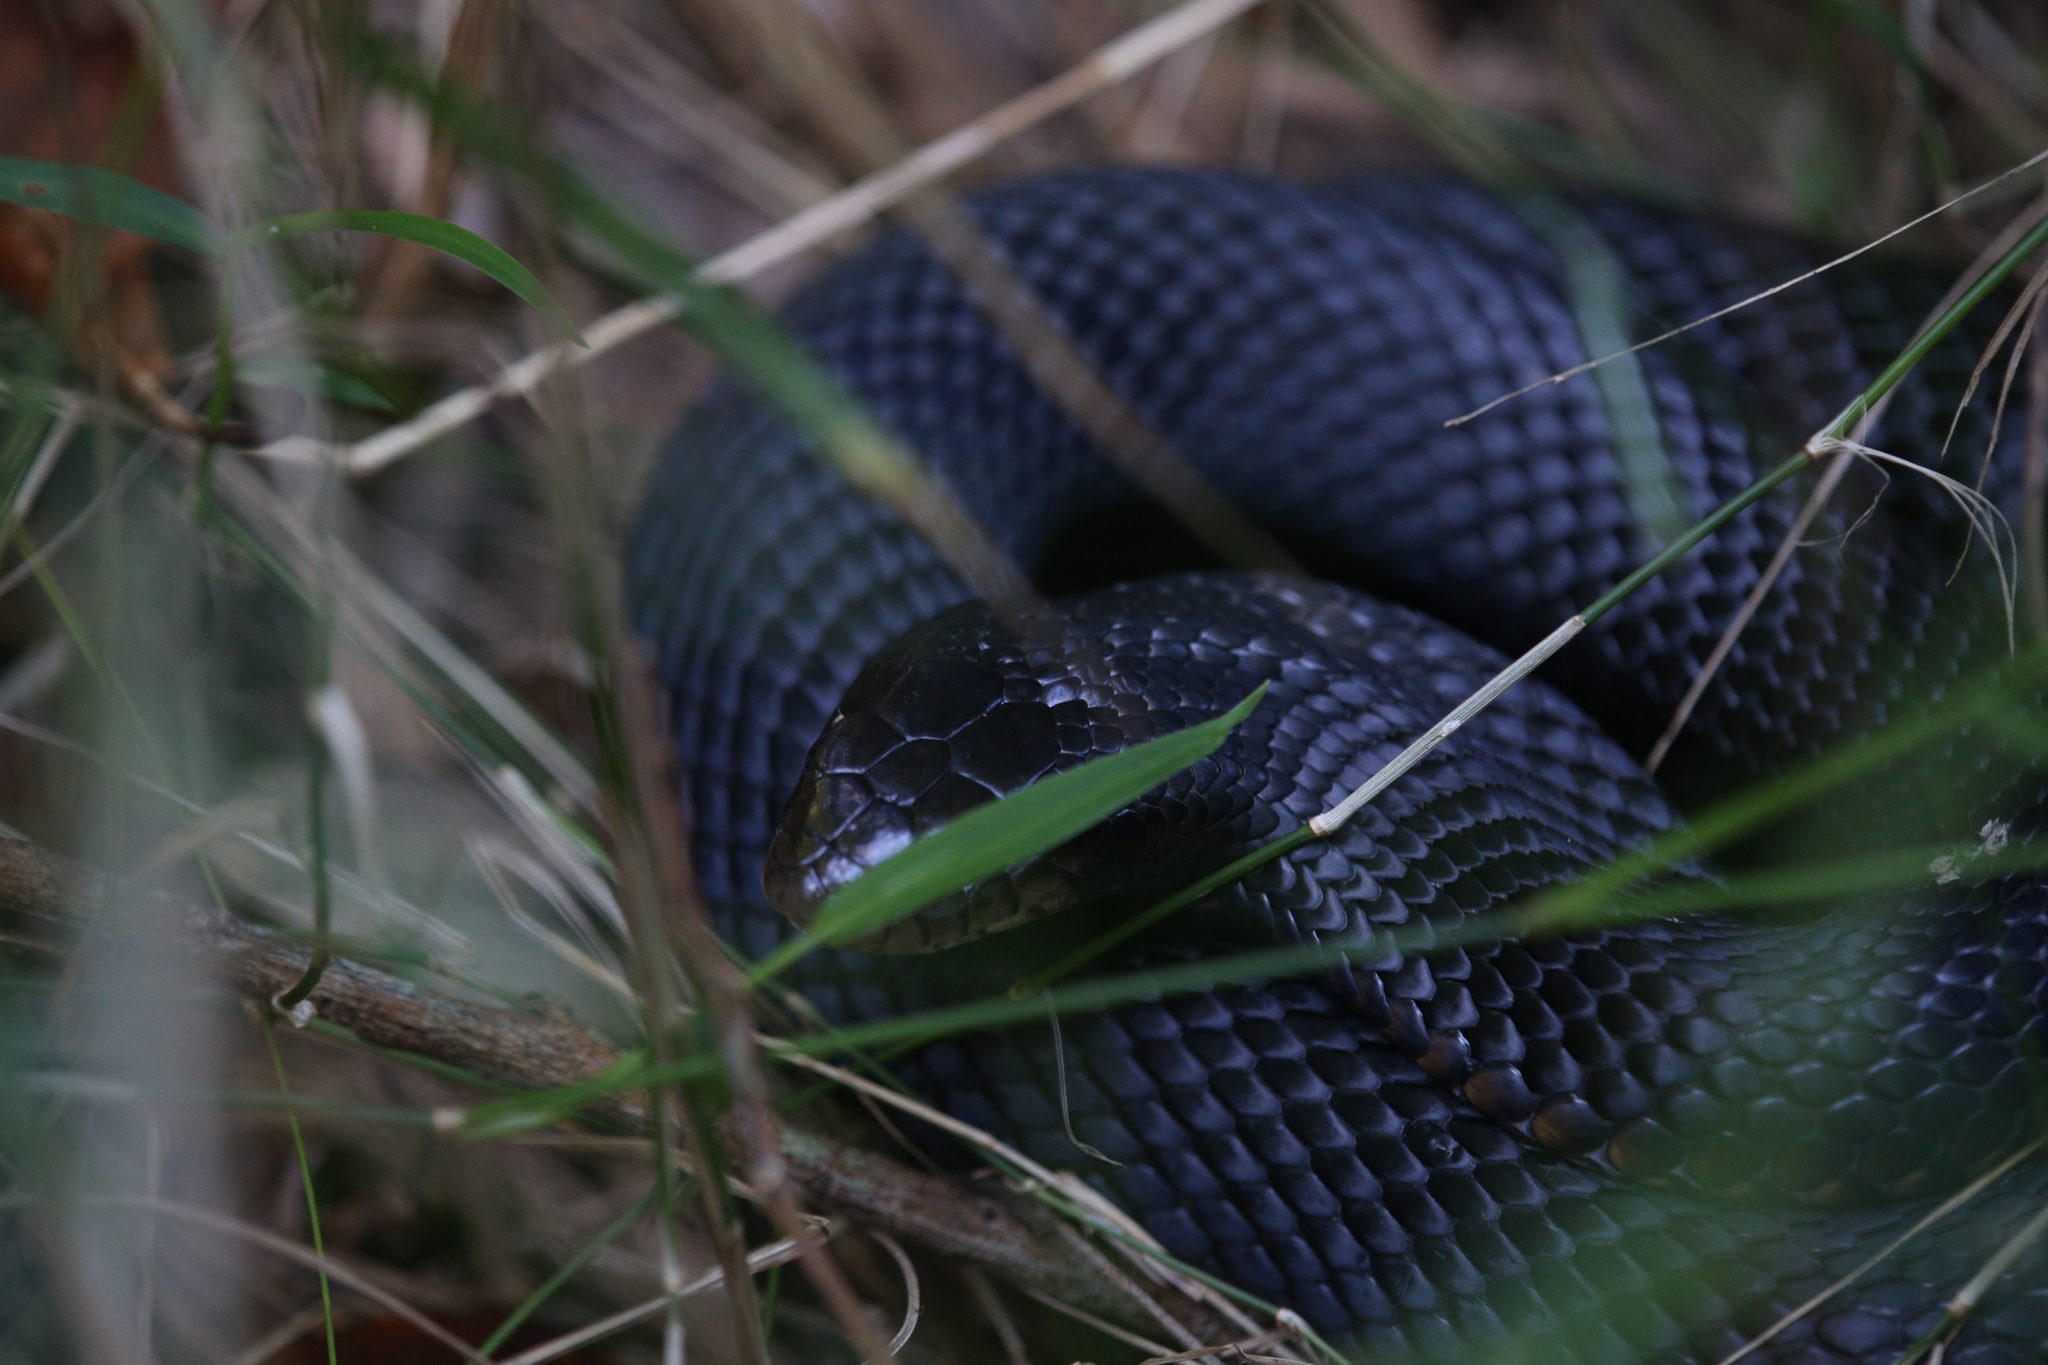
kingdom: Animalia
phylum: Chordata
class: Squamata
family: Elapidae
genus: Pseudechis
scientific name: Pseudechis porphyriacus
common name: Australian black snake
